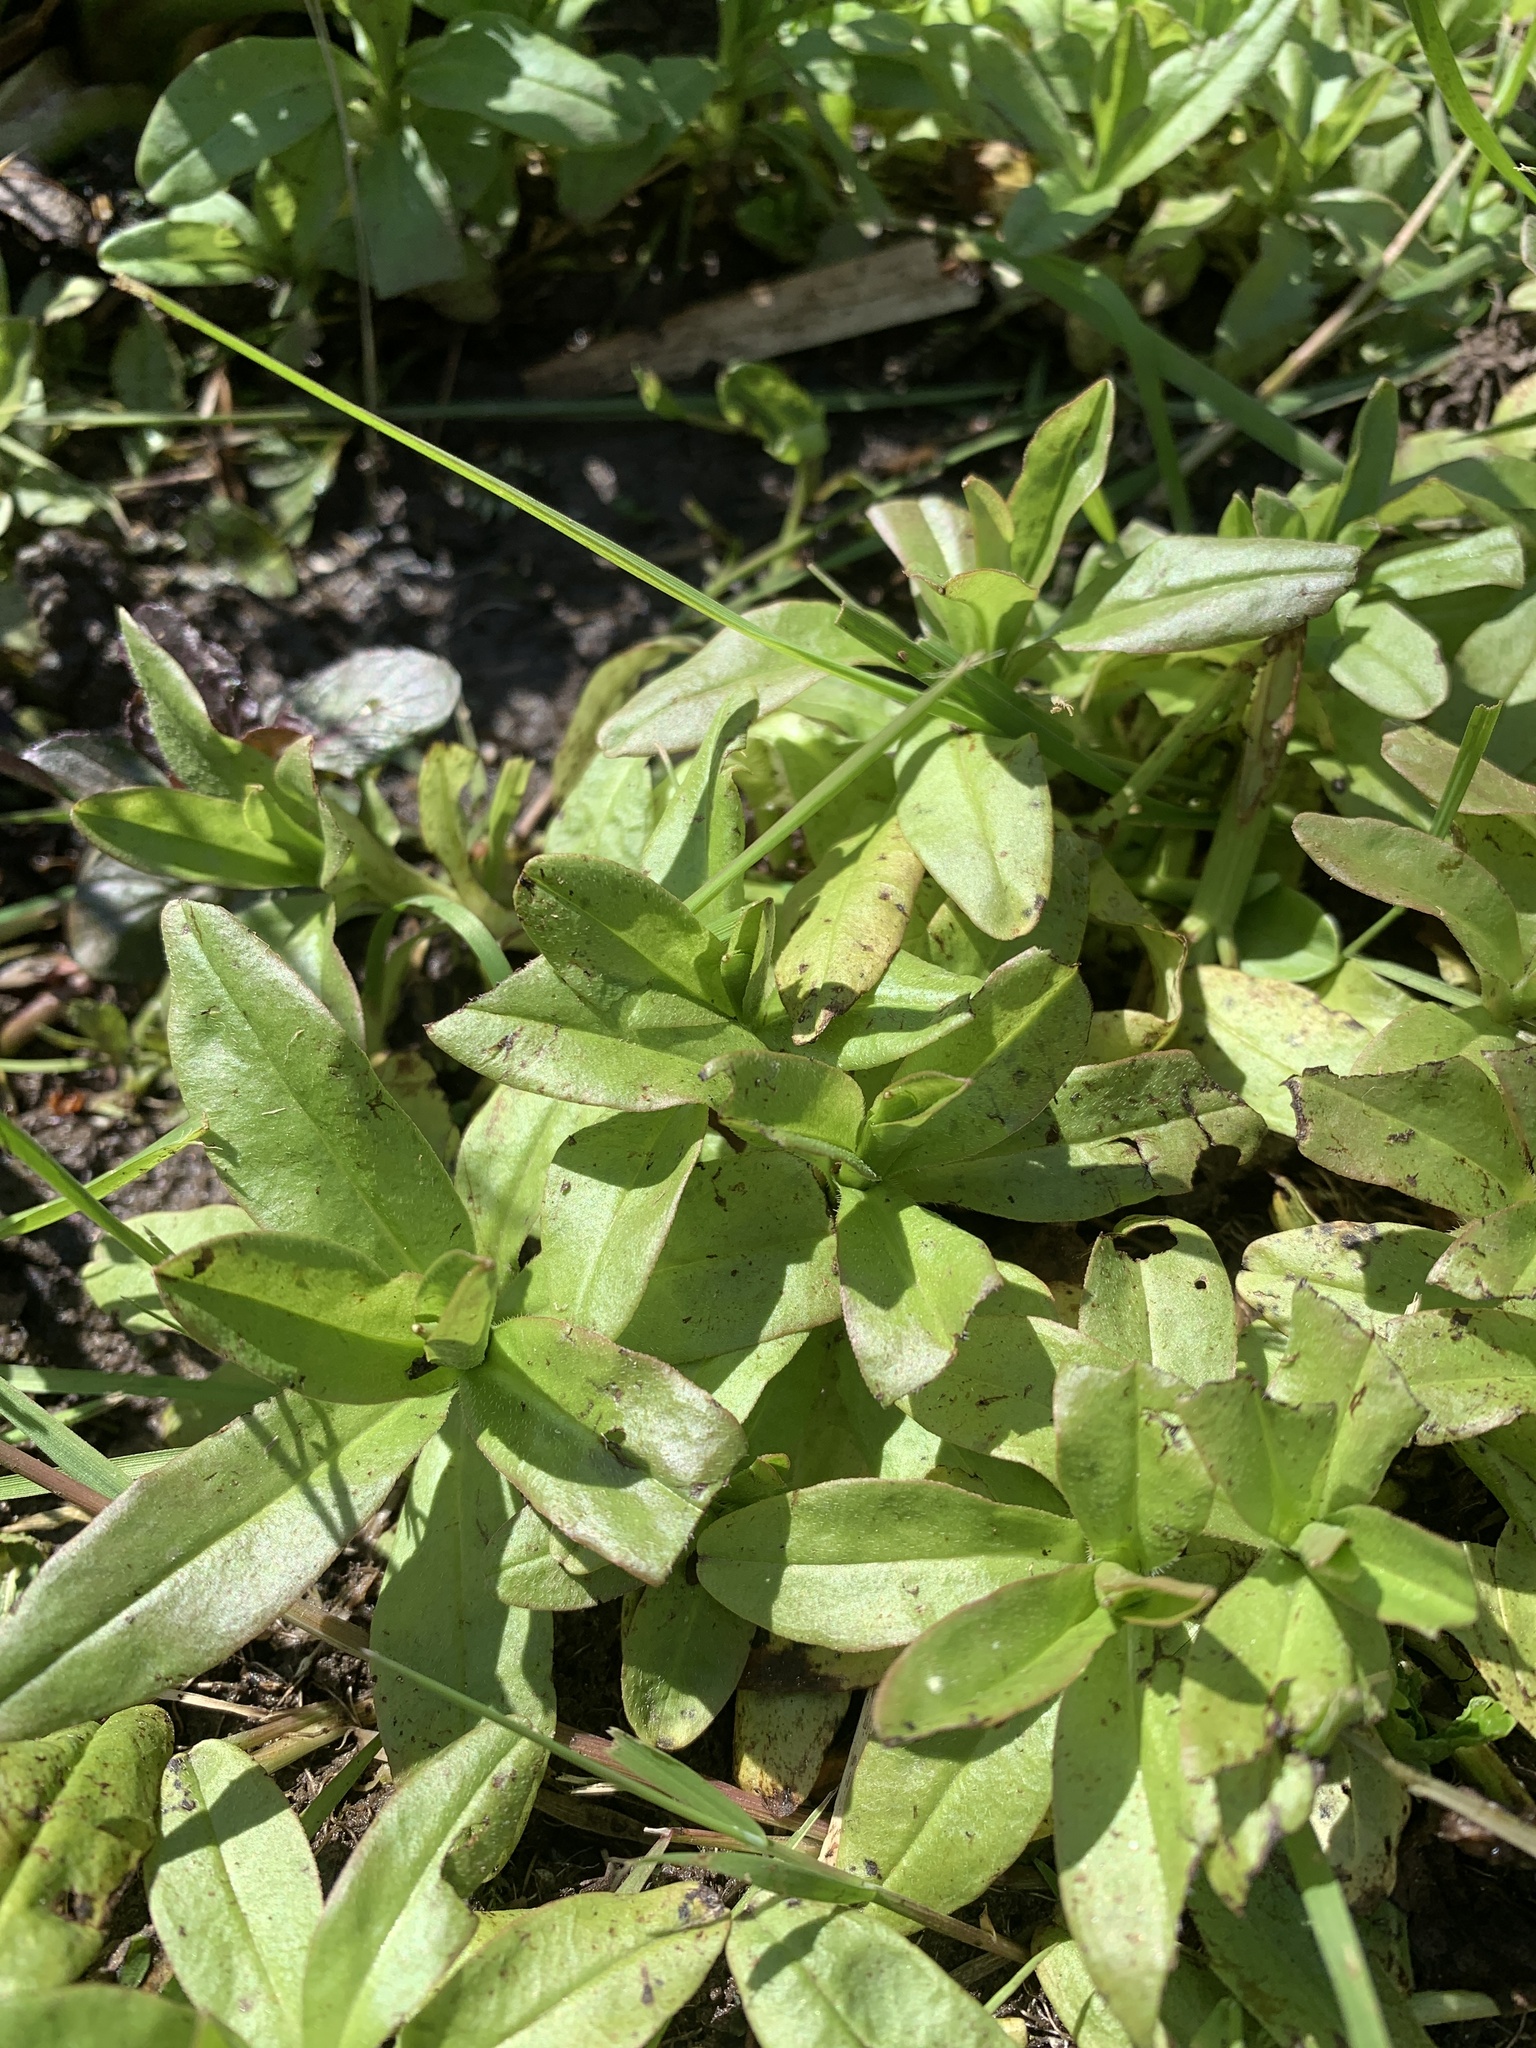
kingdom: Plantae
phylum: Tracheophyta
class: Magnoliopsida
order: Boraginales
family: Boraginaceae
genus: Myosotis
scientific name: Myosotis scorpioides
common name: Water forget-me-not
